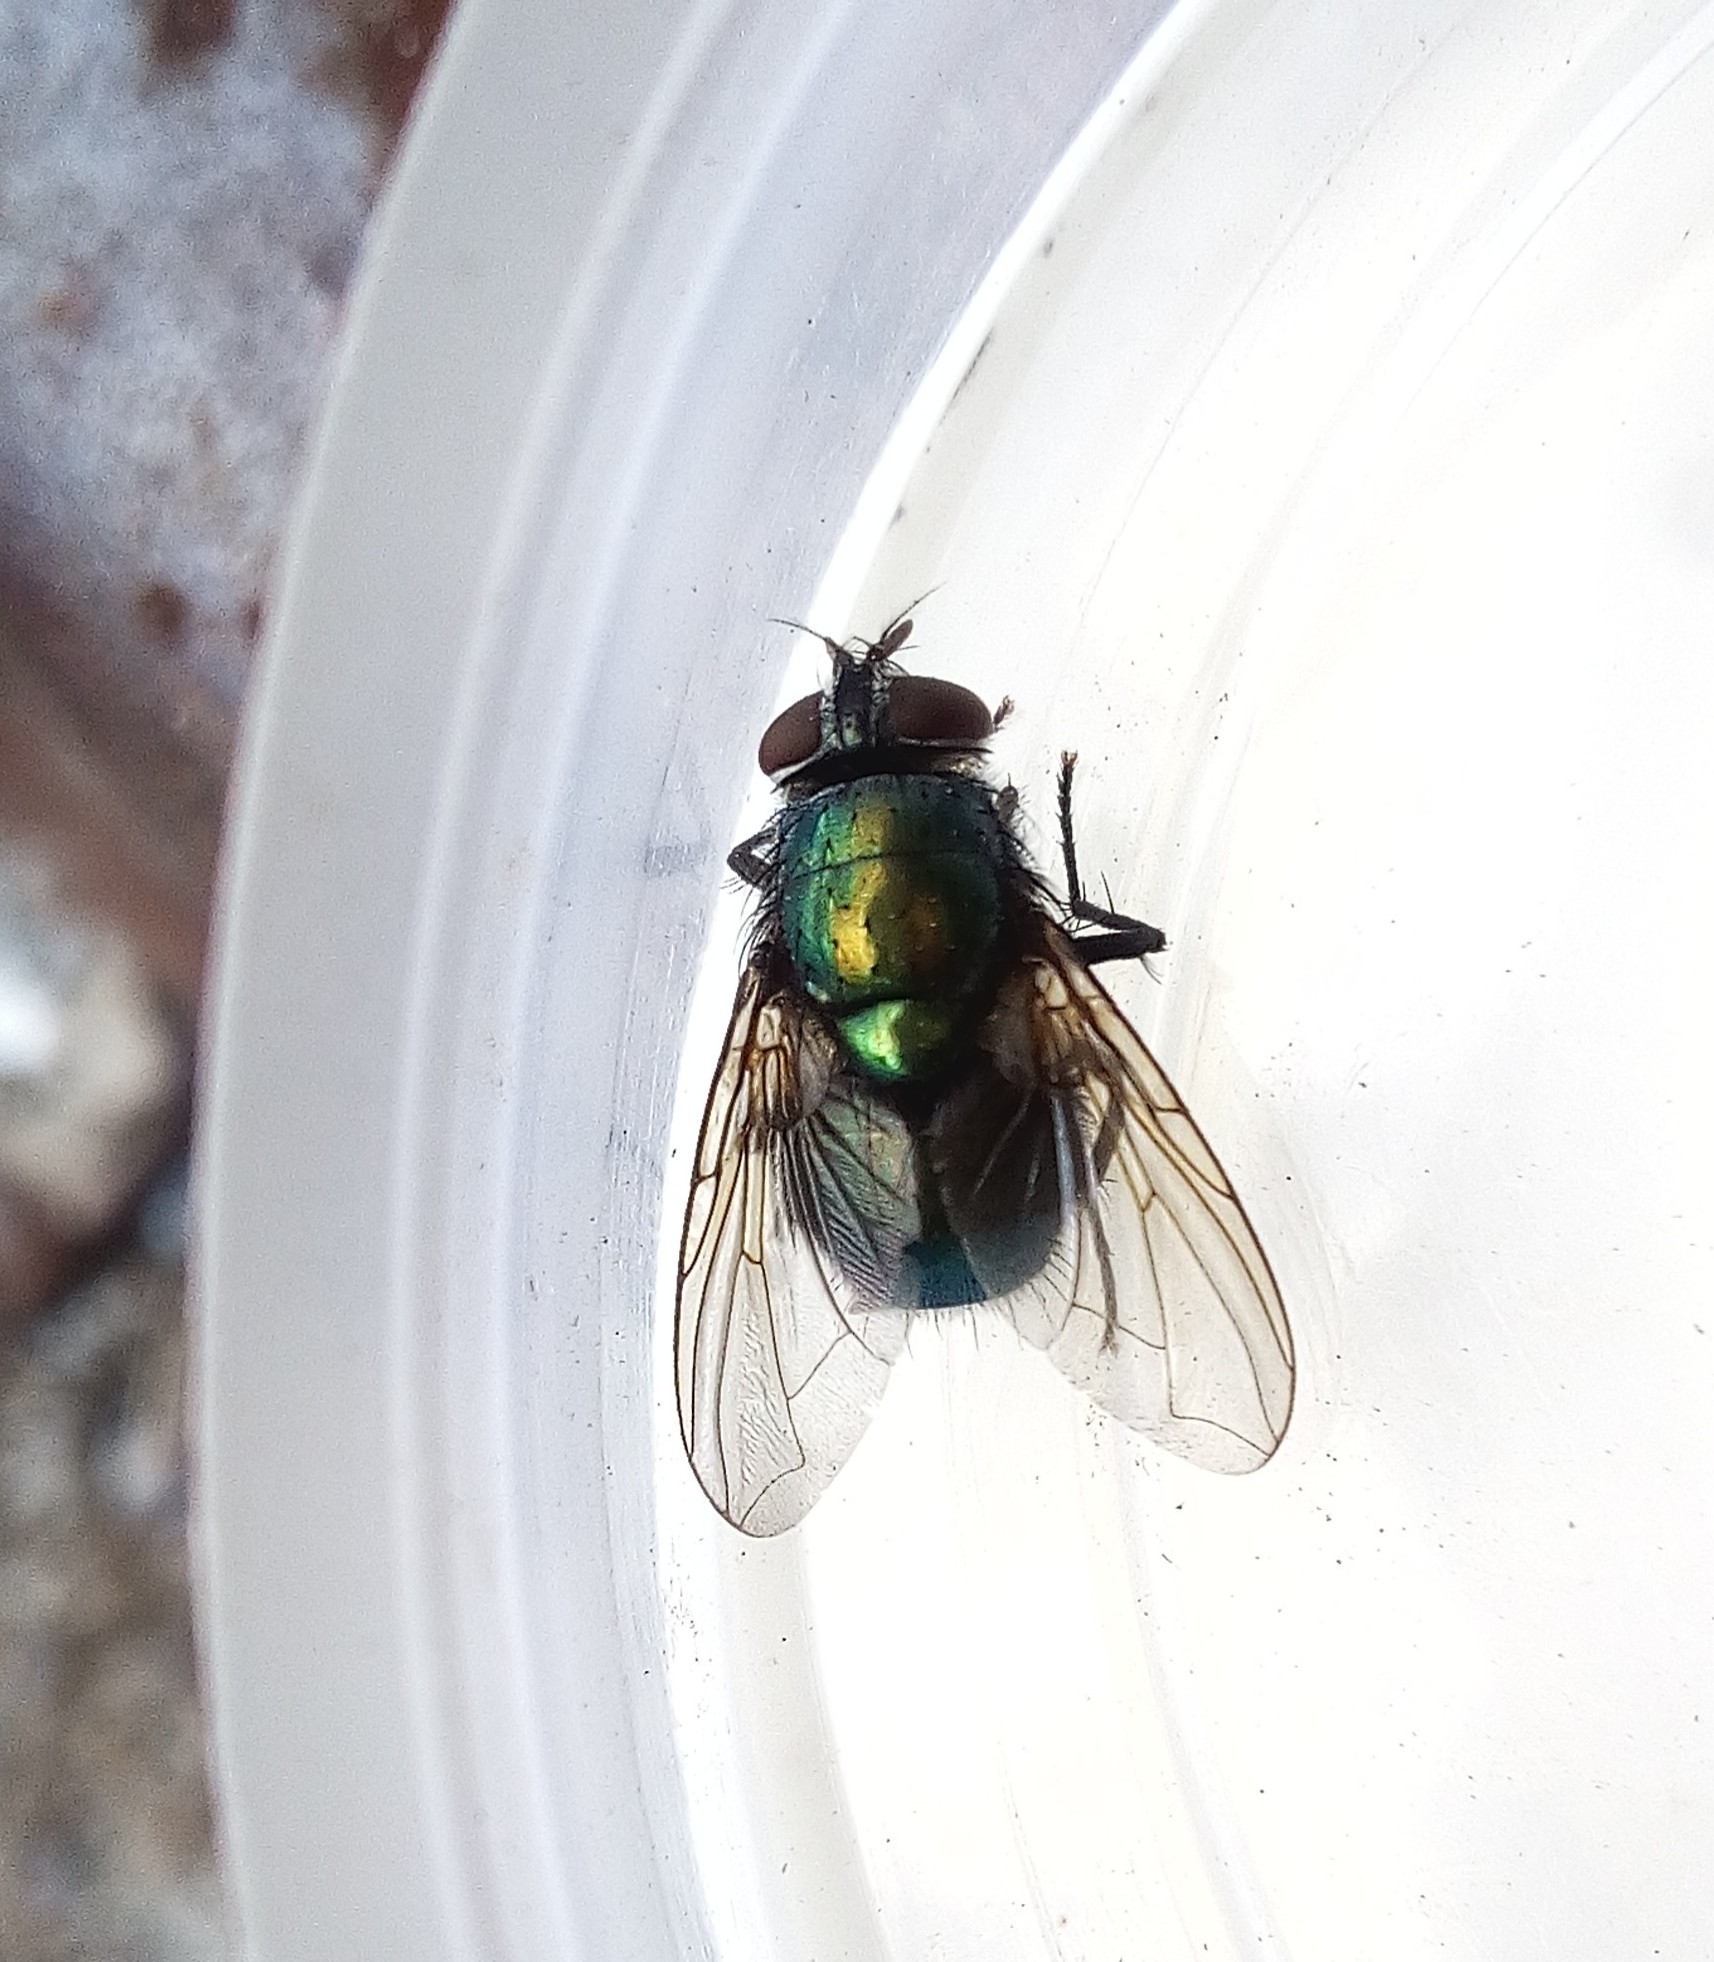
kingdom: Animalia
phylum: Arthropoda
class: Insecta
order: Diptera
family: Calliphoridae
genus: Lucilia
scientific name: Lucilia sericata
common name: Blow fly
